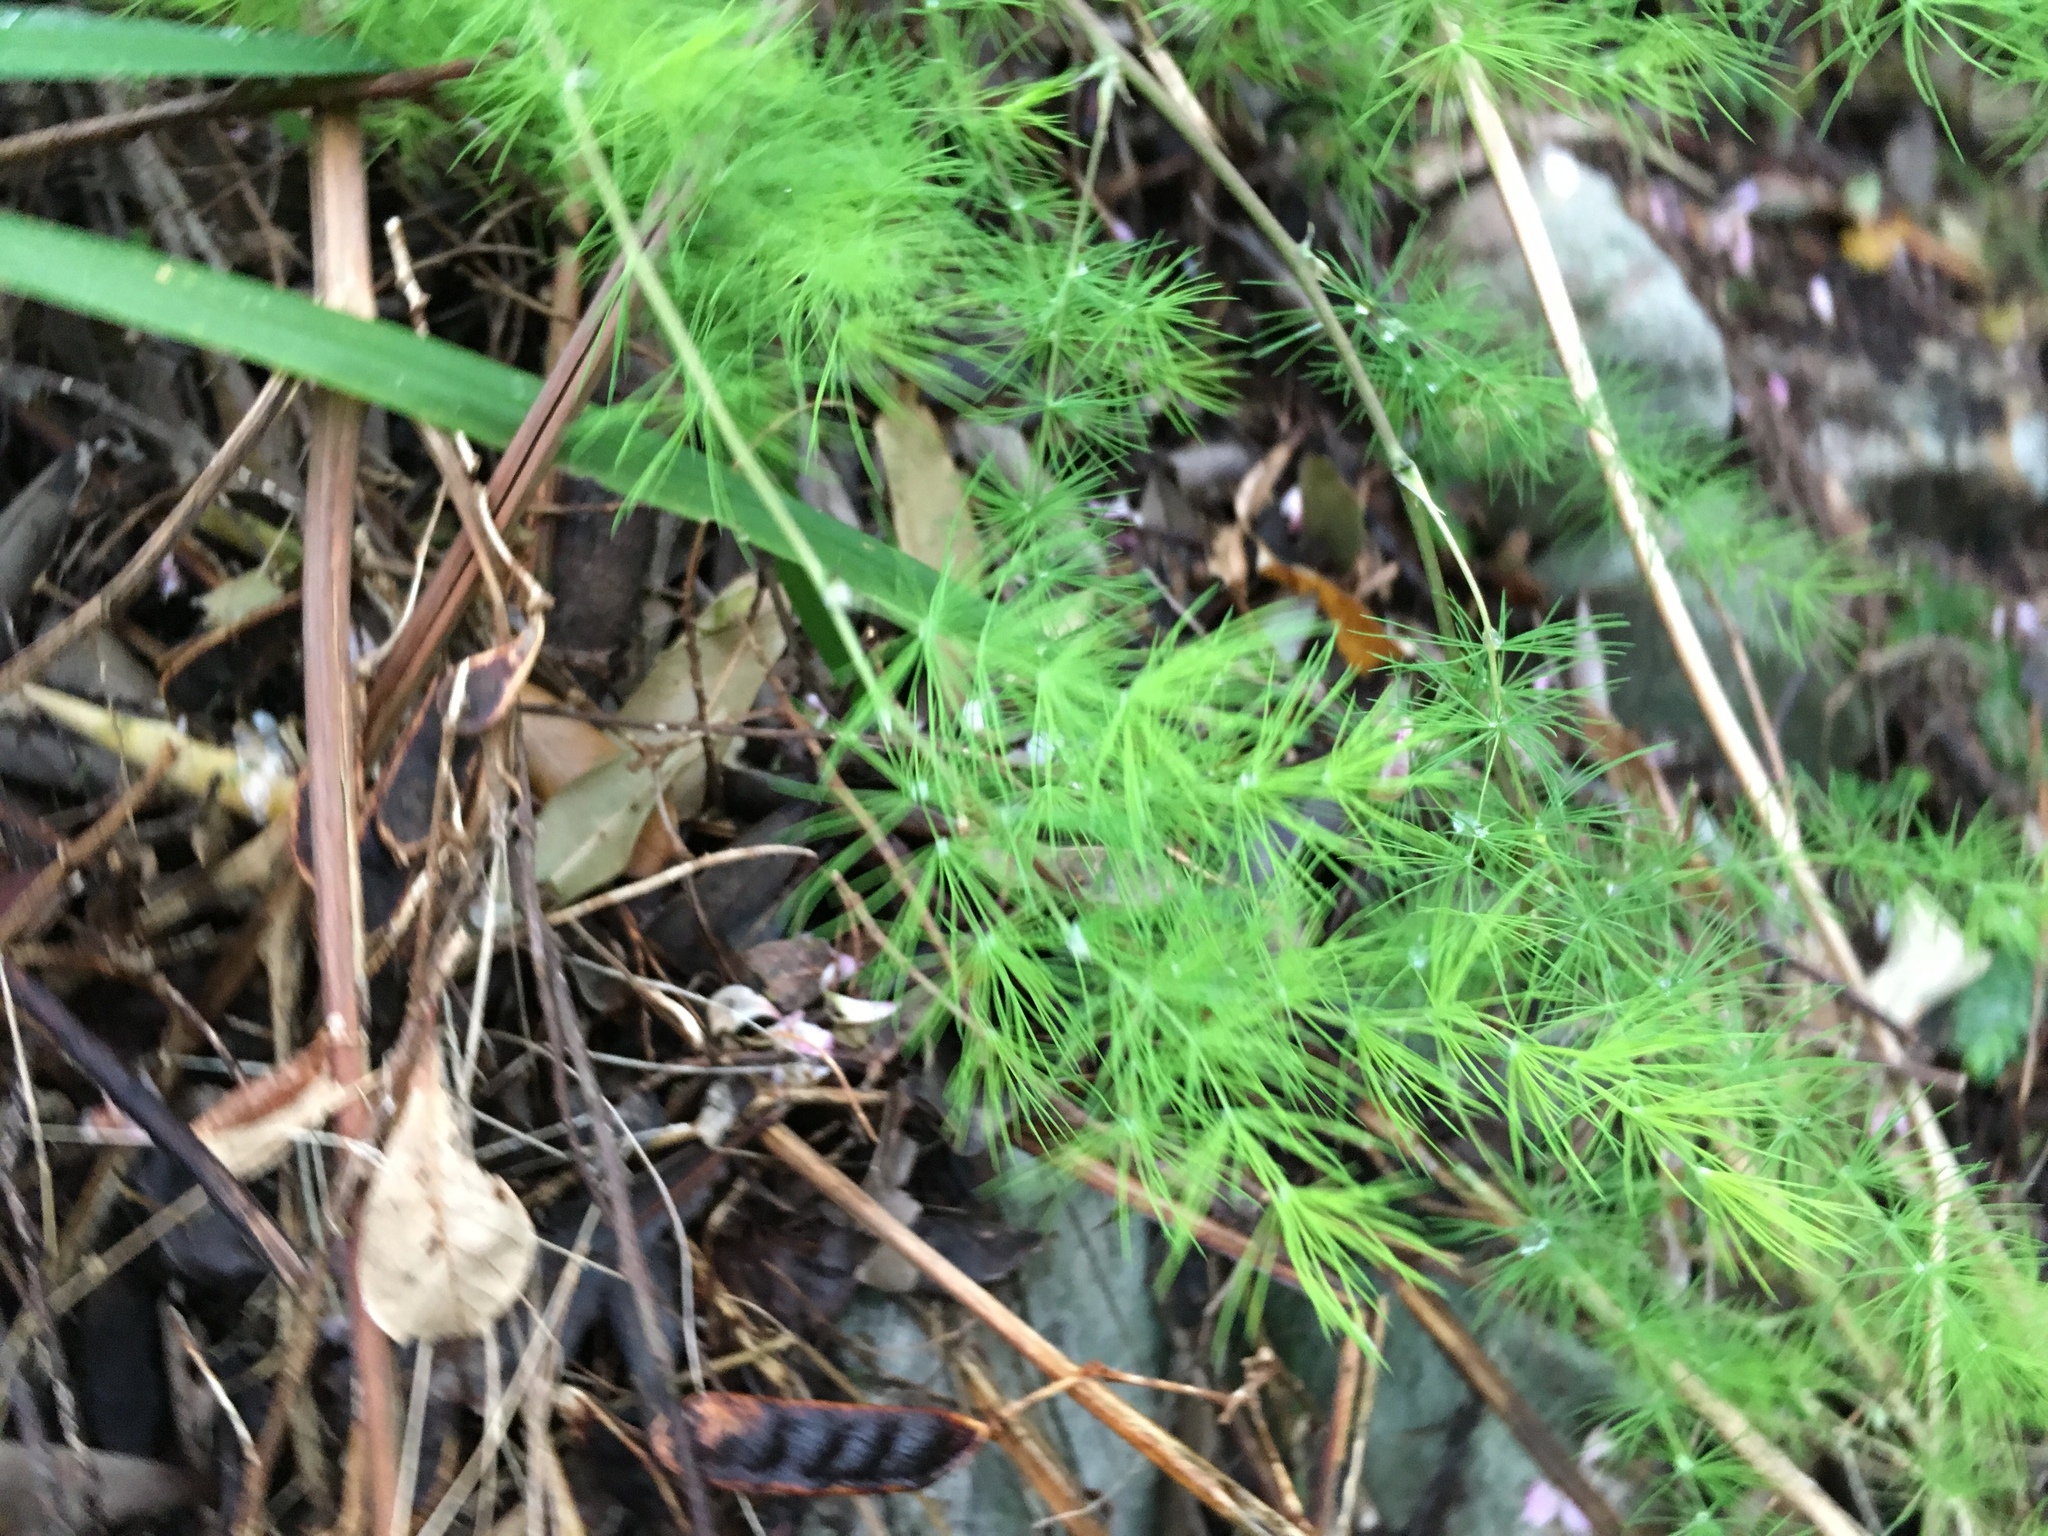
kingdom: Plantae
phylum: Tracheophyta
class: Liliopsida
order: Asparagales
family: Asparagaceae
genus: Asparagus
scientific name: Asparagus rubicundus
